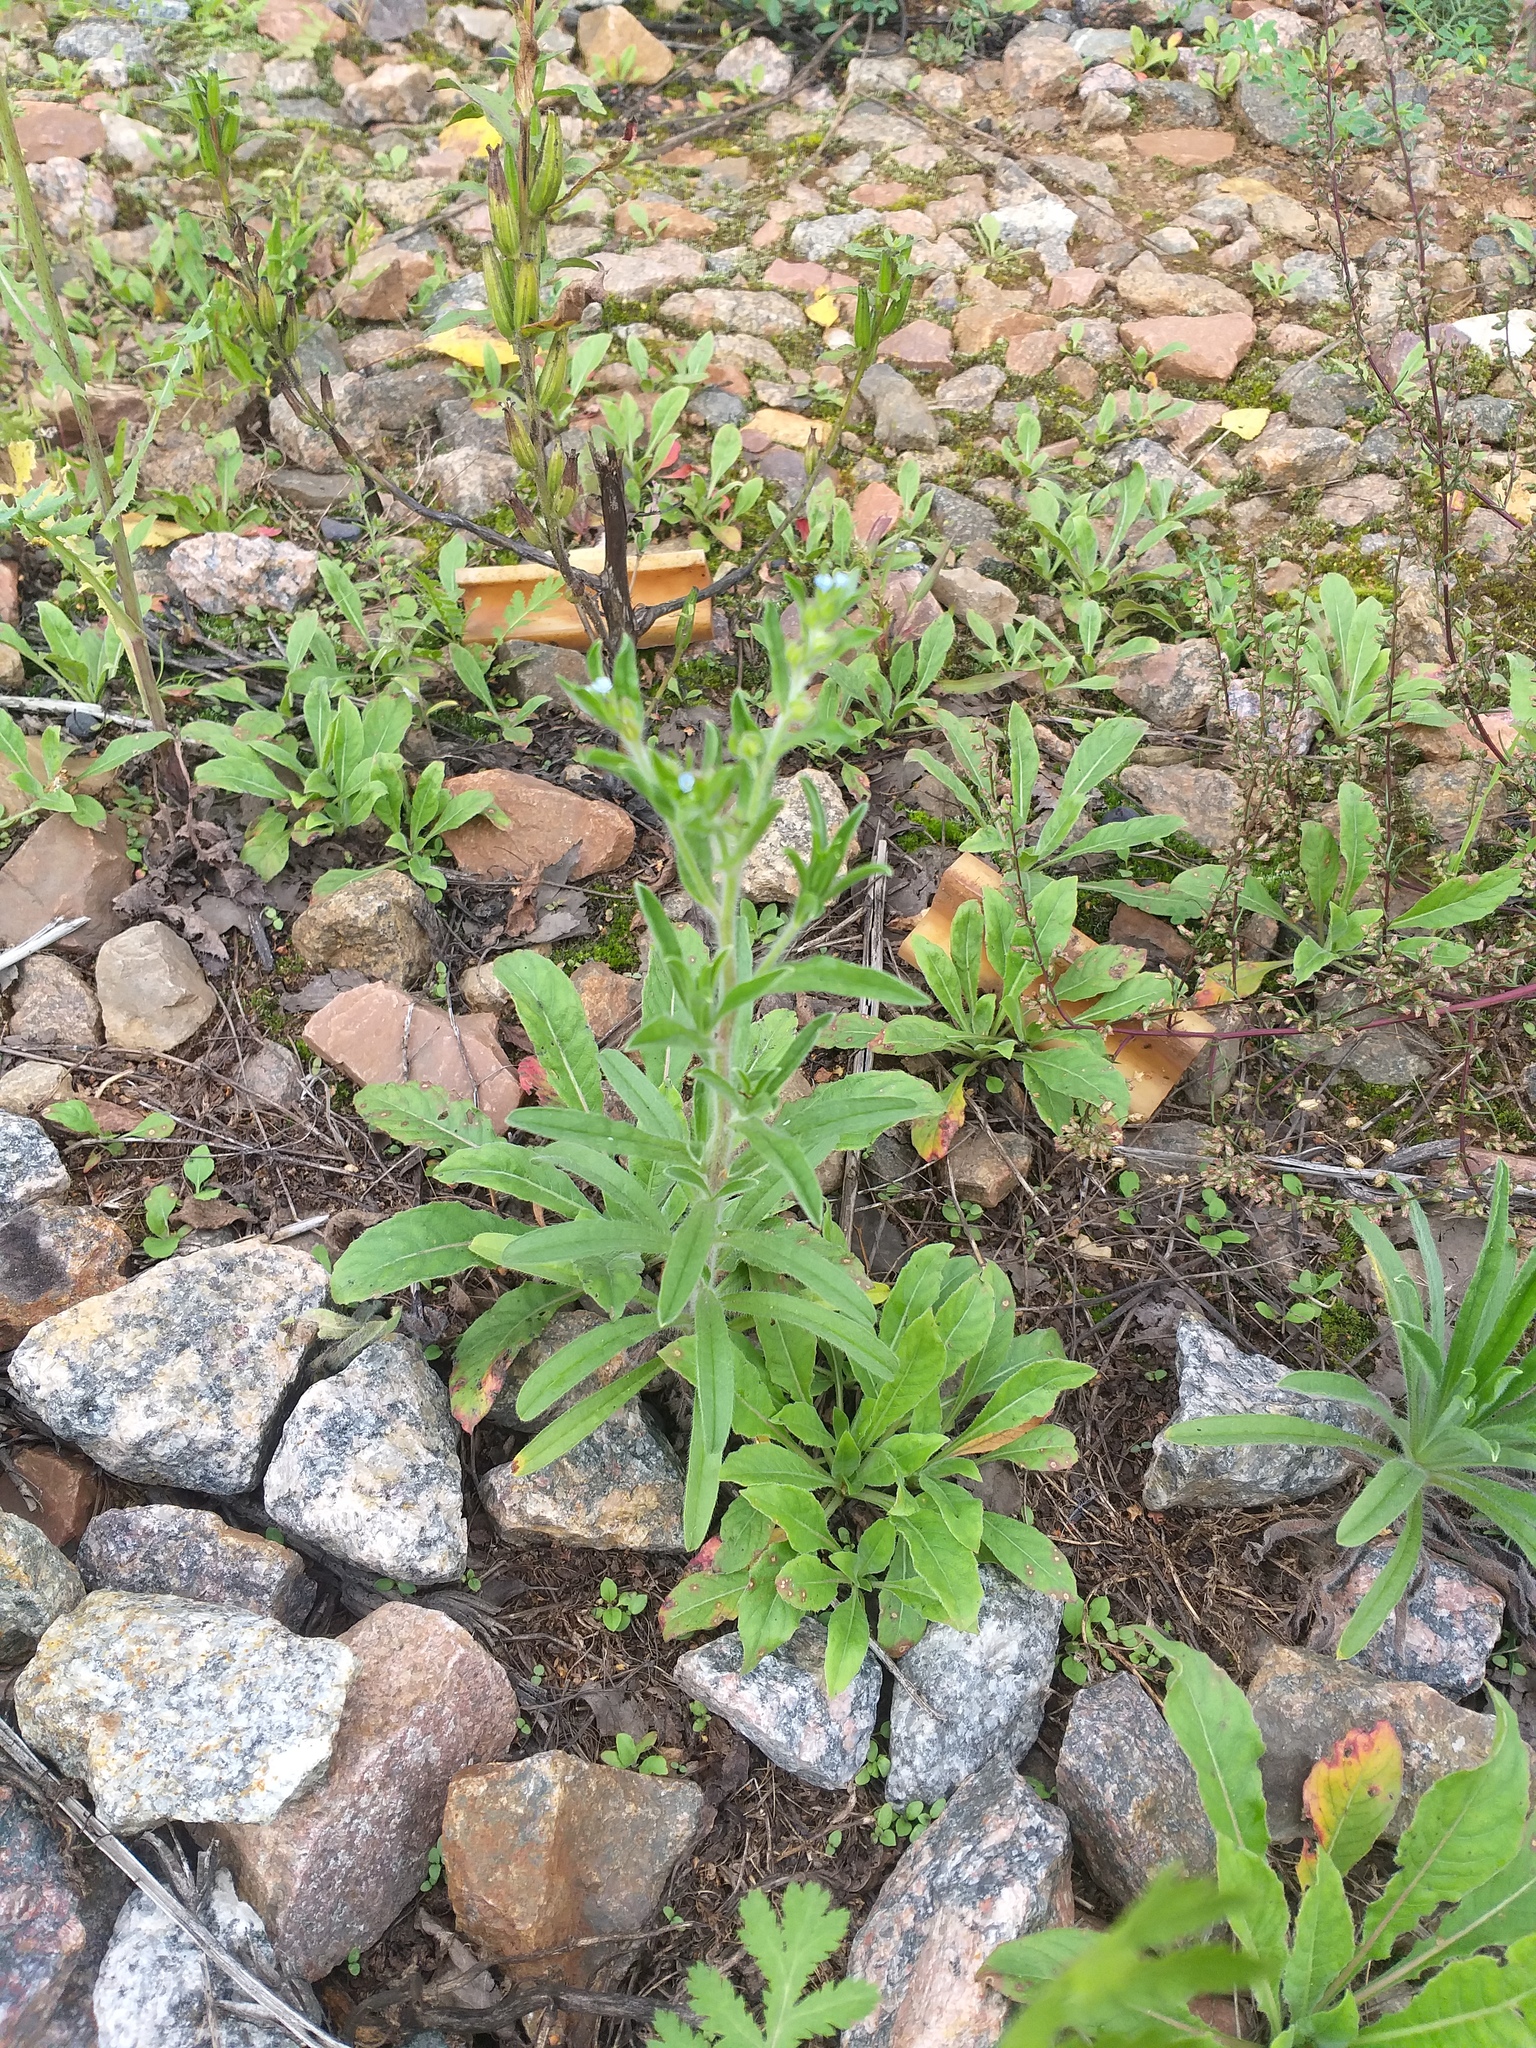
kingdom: Plantae
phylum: Tracheophyta
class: Magnoliopsida
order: Boraginales
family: Boraginaceae
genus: Lappula
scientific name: Lappula squarrosa
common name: European stickseed
